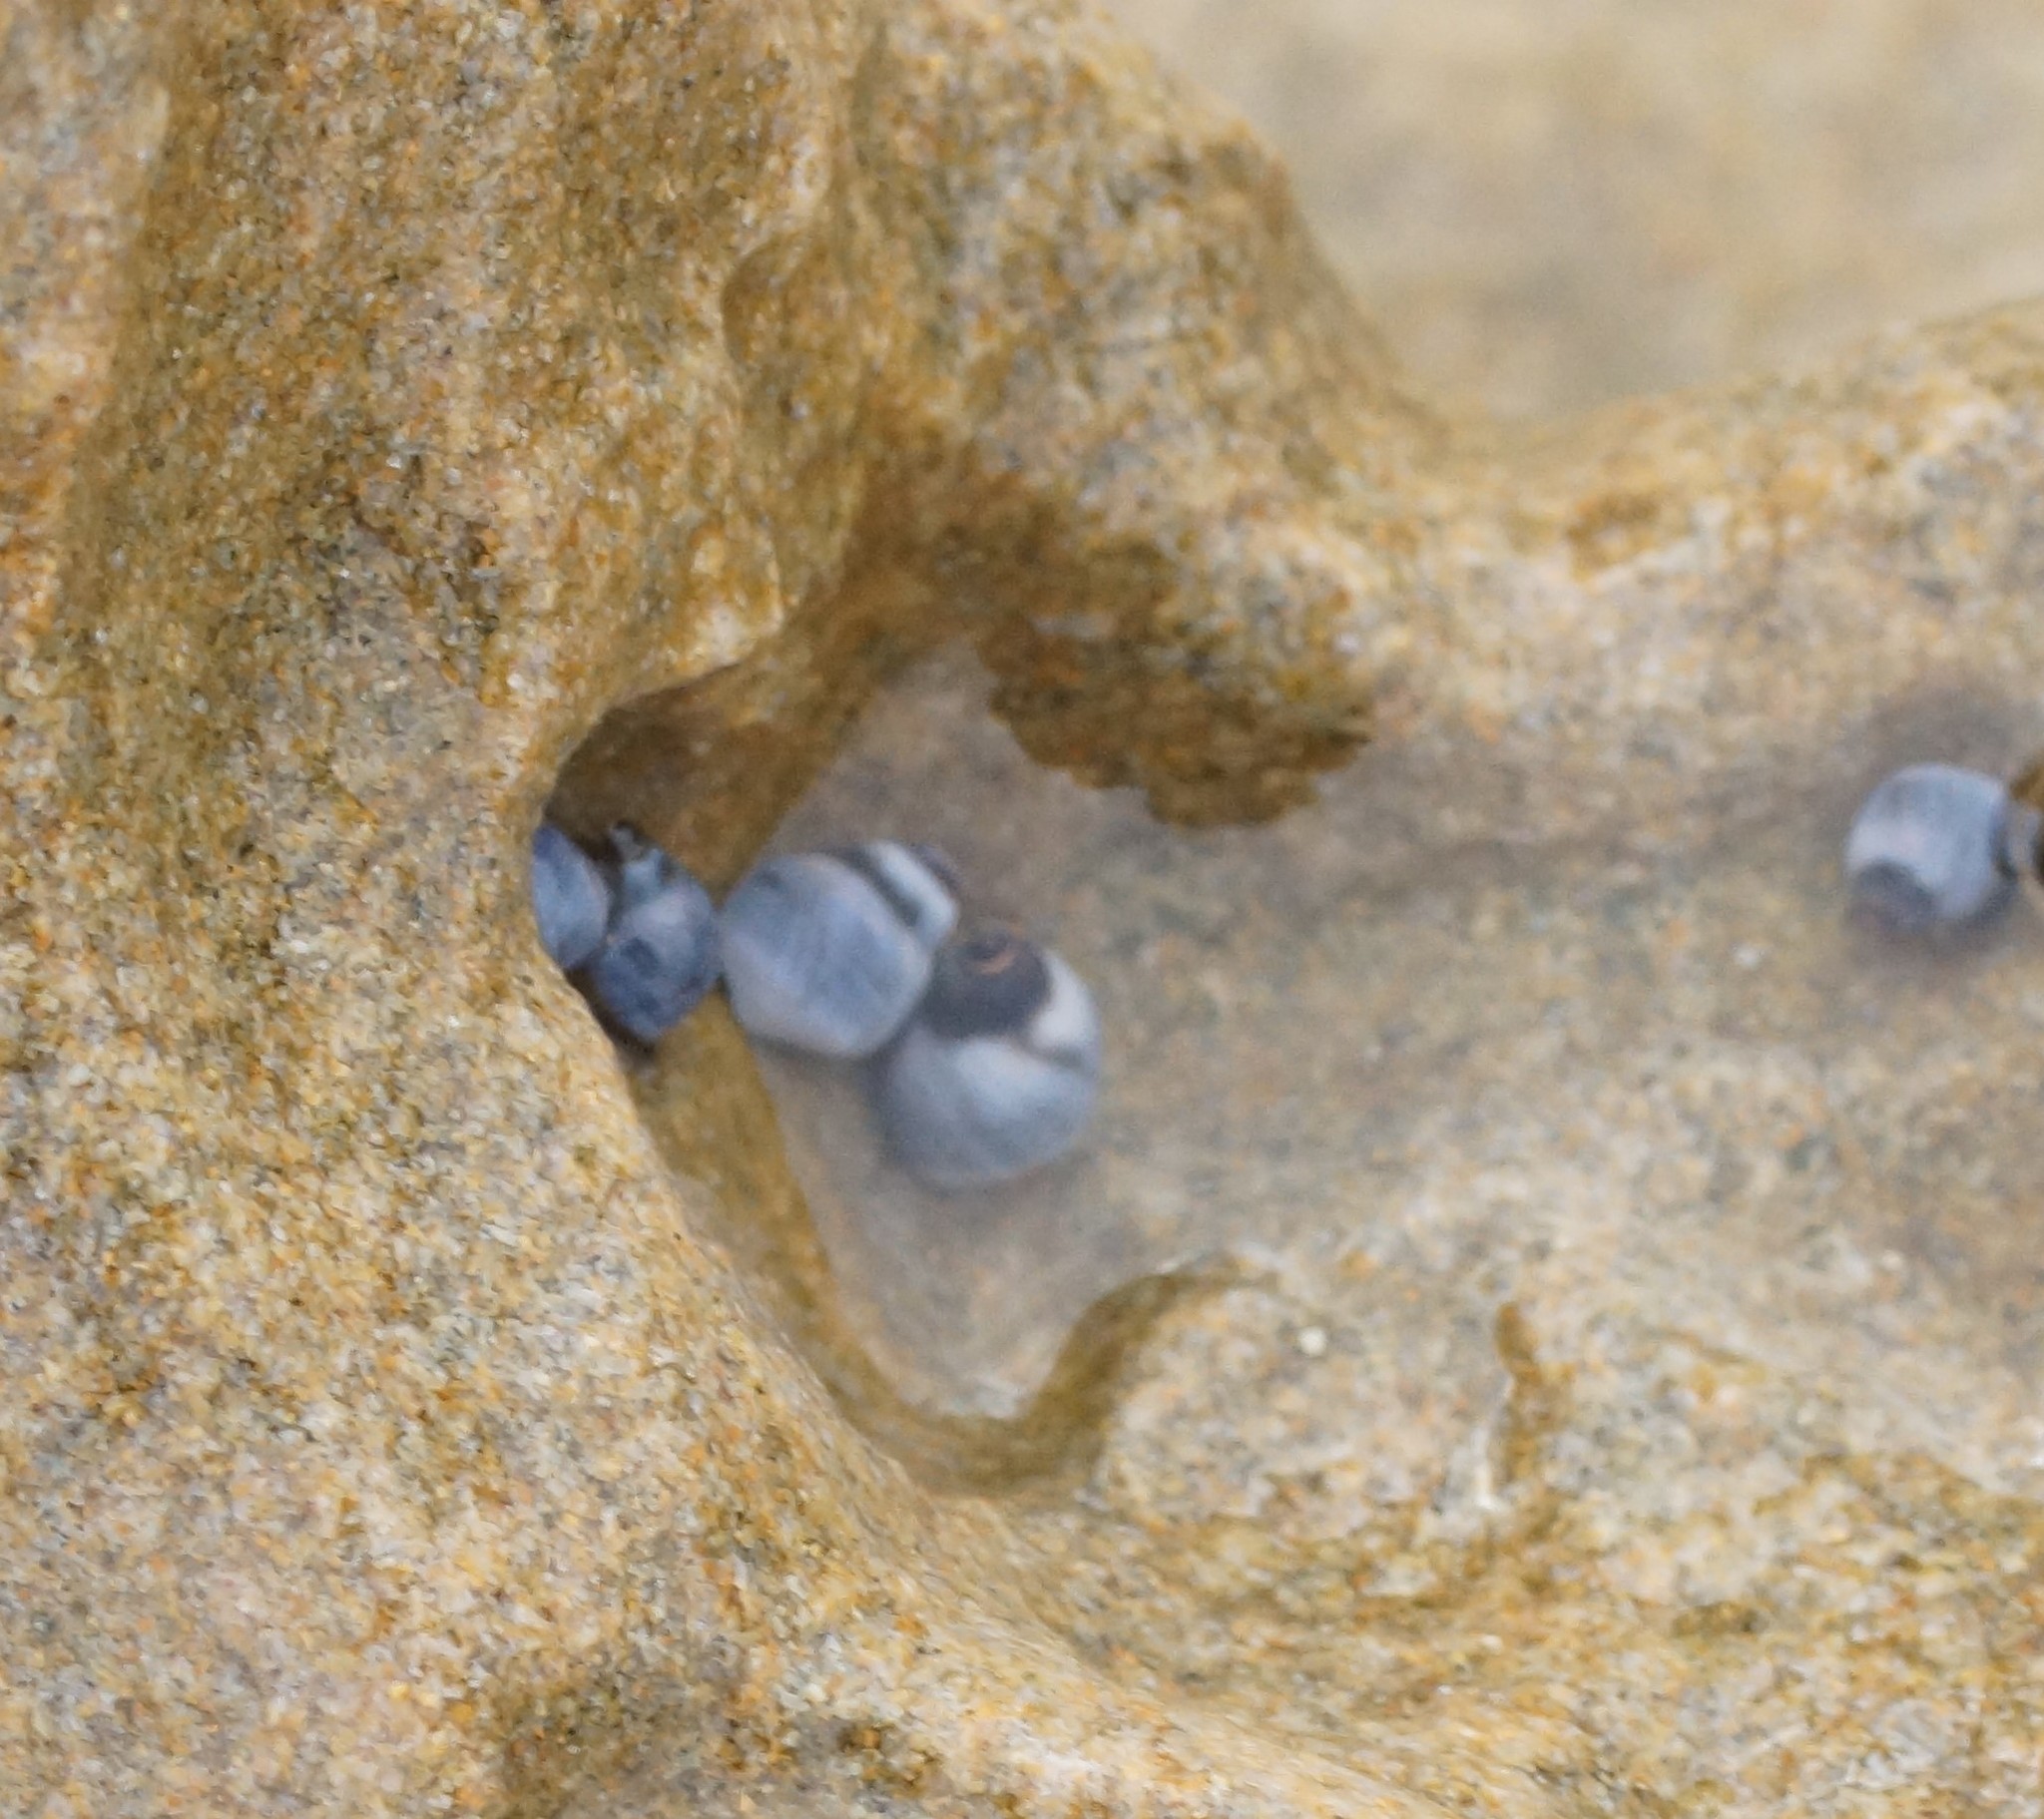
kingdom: Animalia
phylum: Mollusca
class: Gastropoda
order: Littorinimorpha
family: Littorinidae
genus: Austrolittorina
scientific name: Austrolittorina unifasciata
